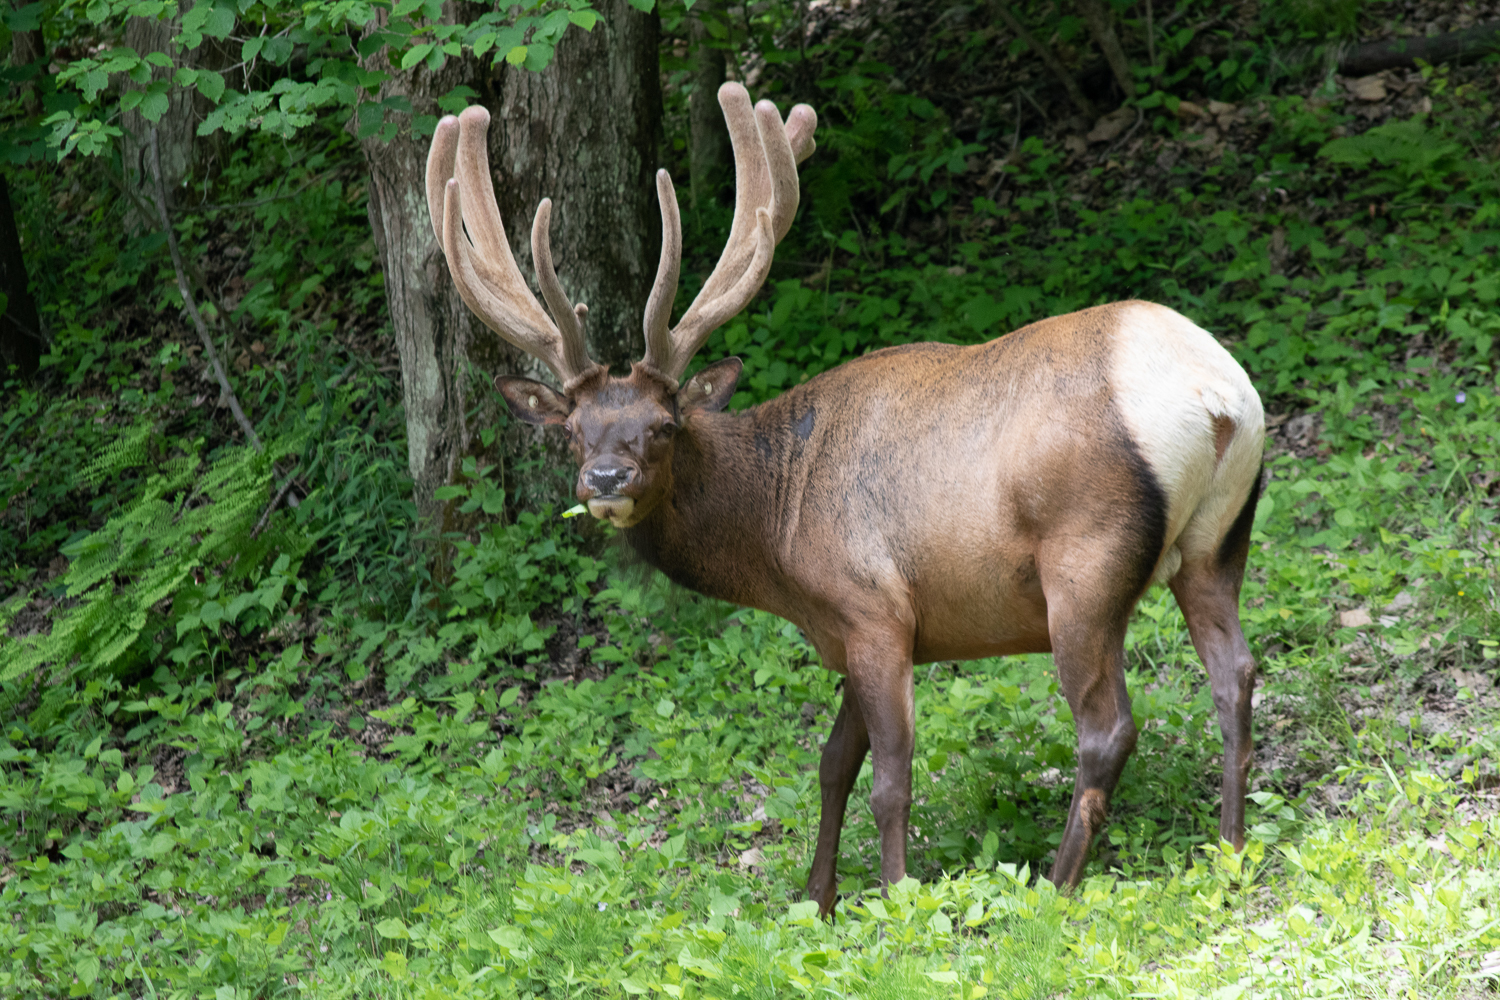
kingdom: Animalia
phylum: Chordata
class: Mammalia
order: Artiodactyla
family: Cervidae
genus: Cervus
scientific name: Cervus elaphus
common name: Red deer
